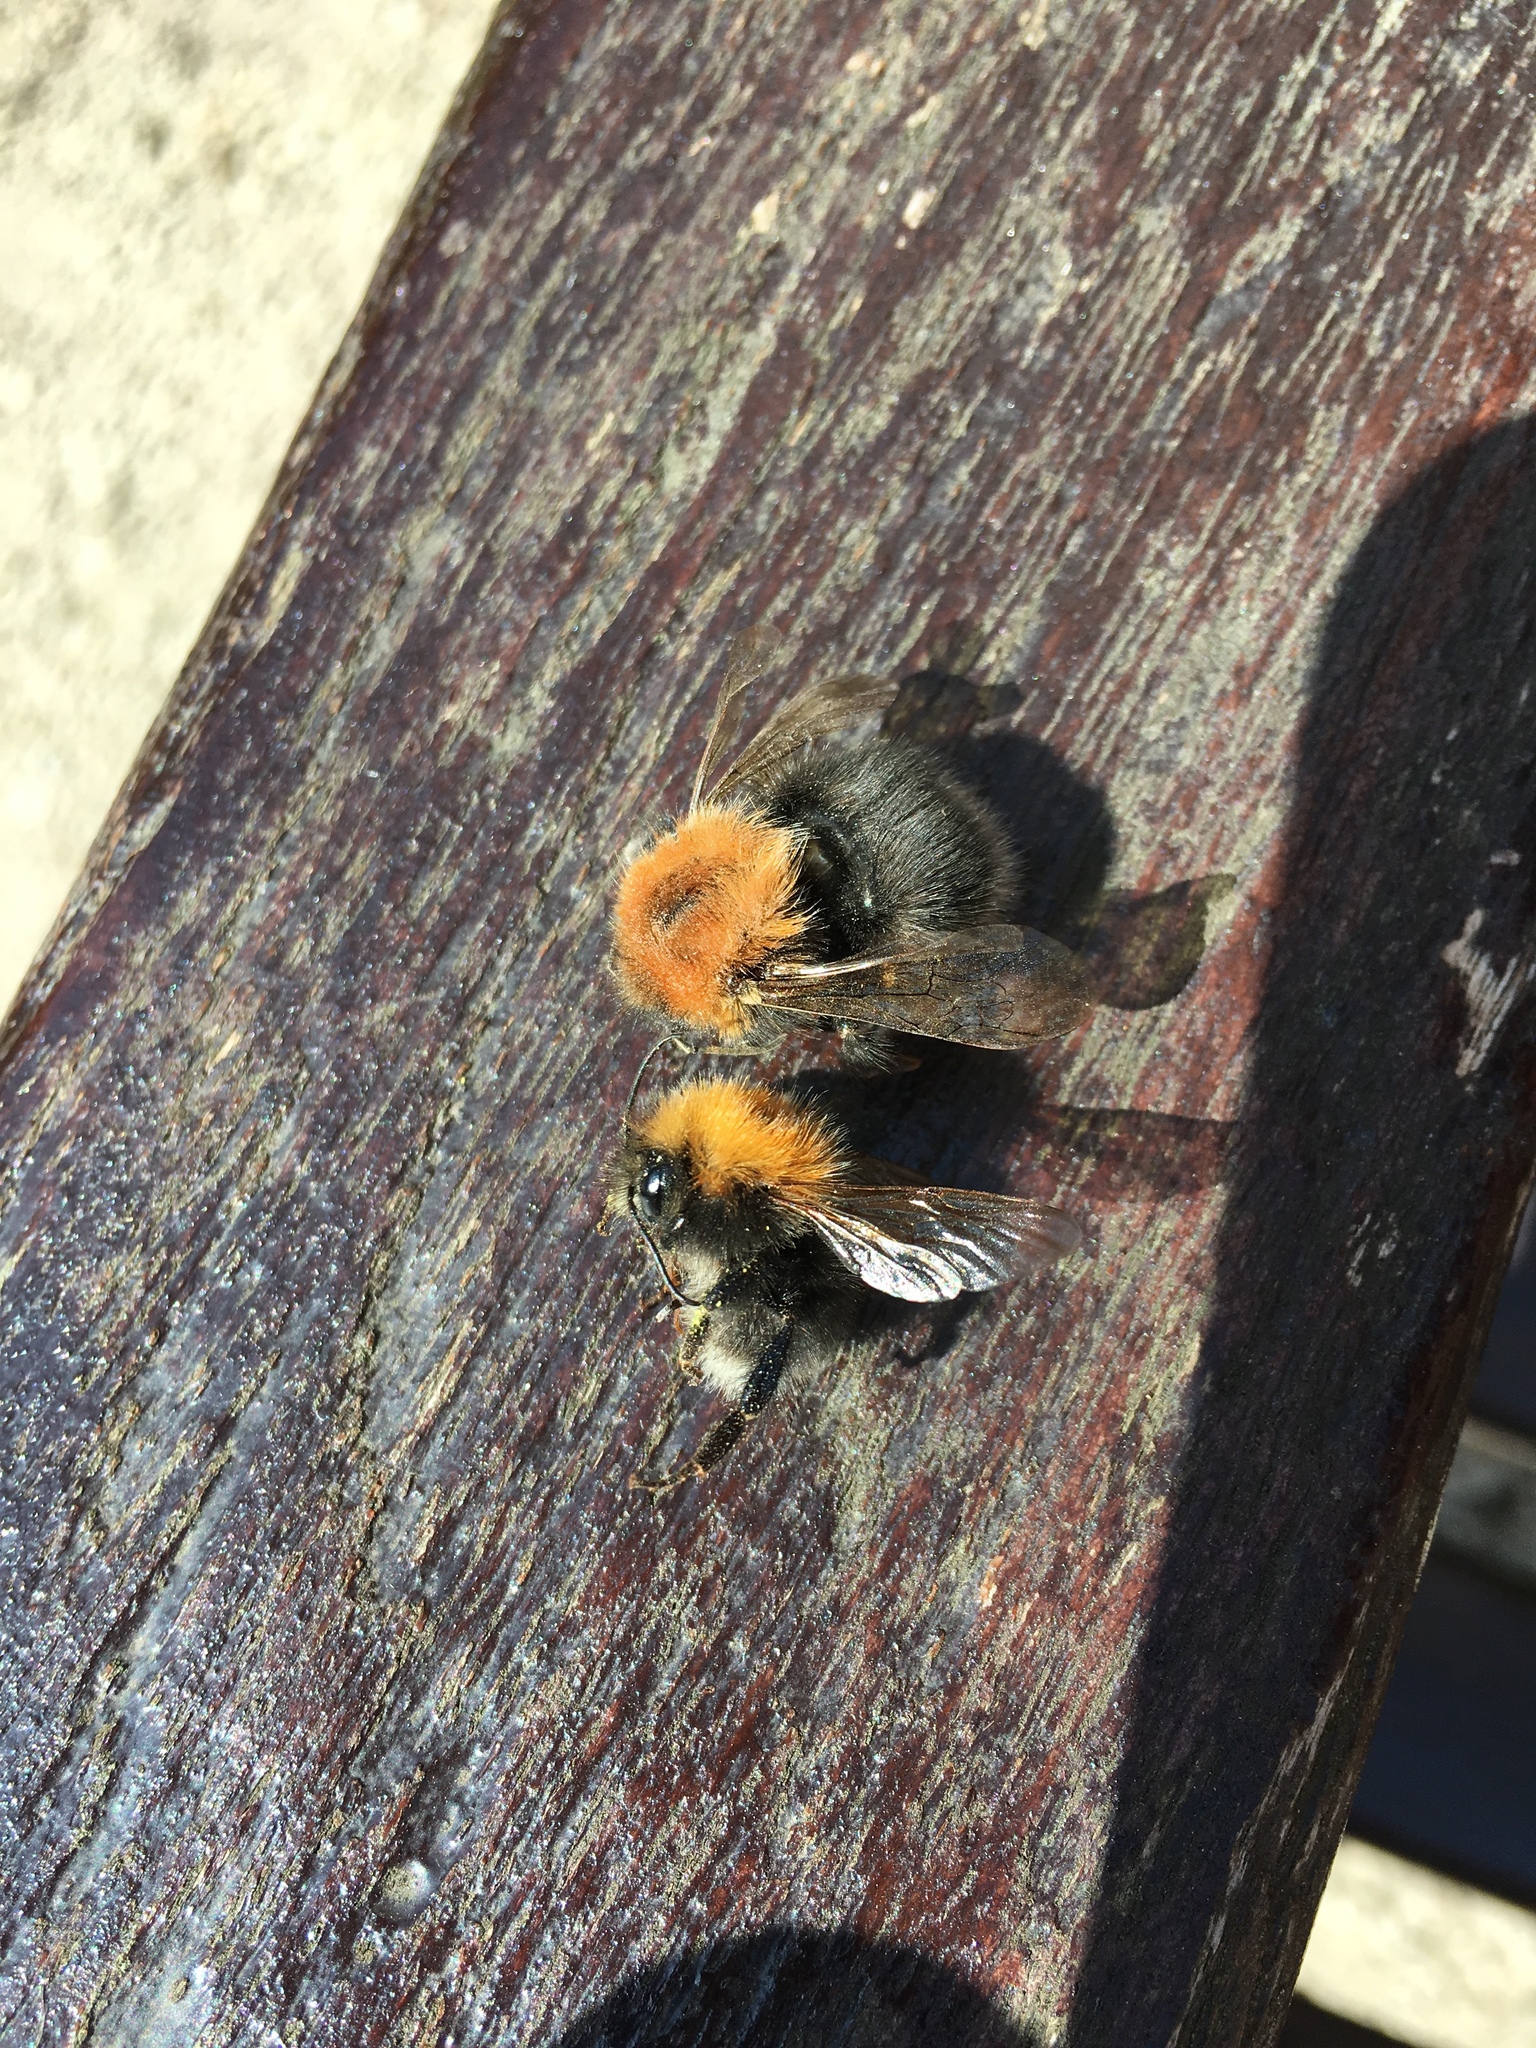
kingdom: Animalia
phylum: Arthropoda
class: Insecta
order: Hymenoptera
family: Apidae
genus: Bombus
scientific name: Bombus hypnorum
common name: New garden bumblebee
